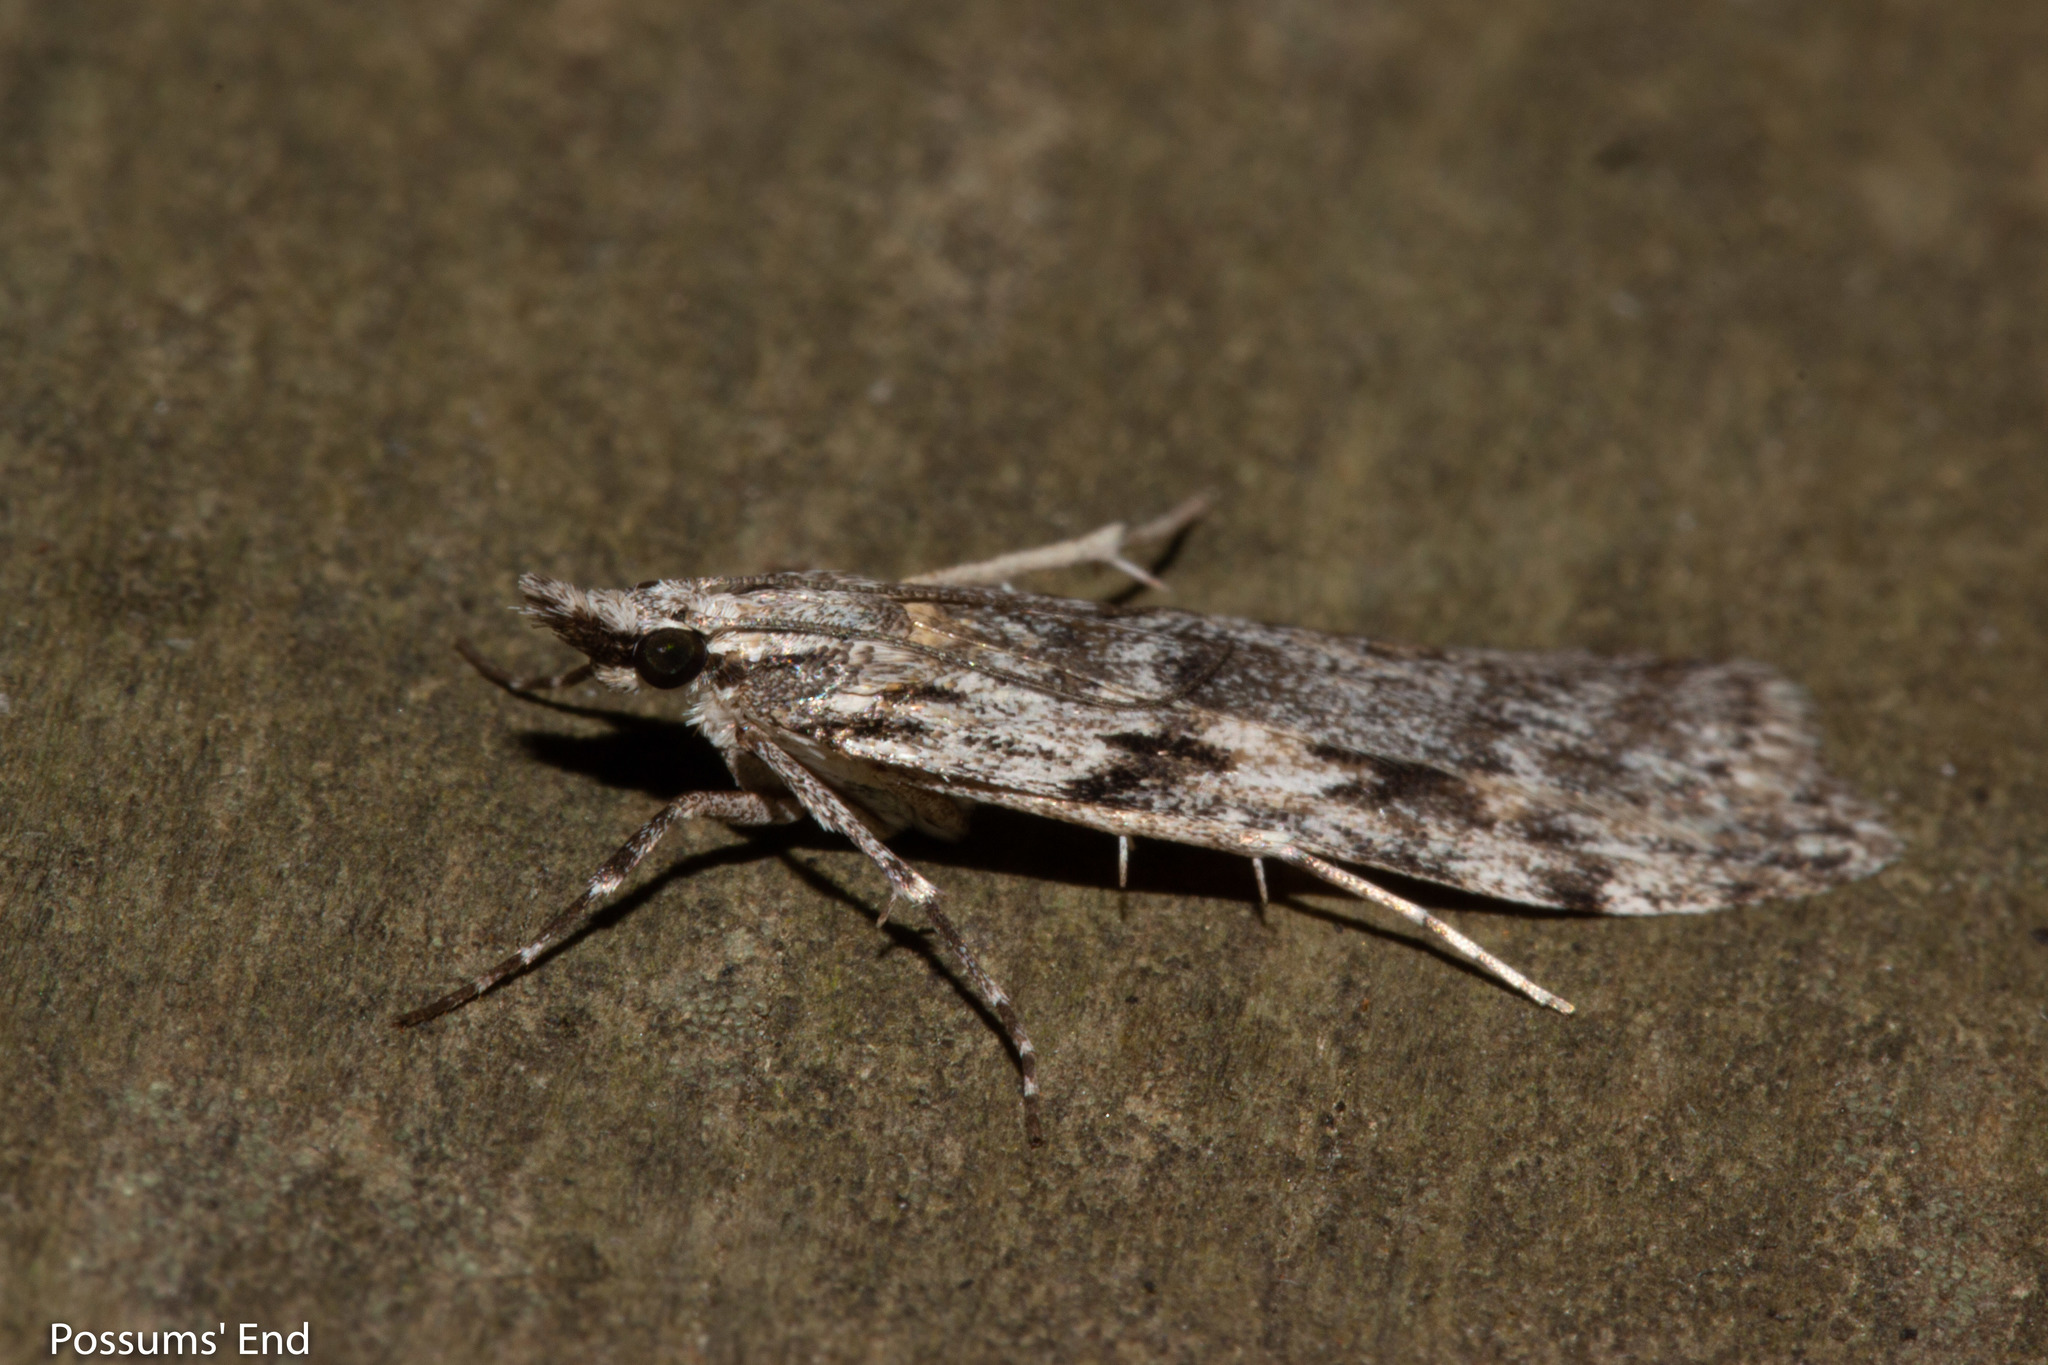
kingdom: Animalia
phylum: Arthropoda
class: Insecta
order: Lepidoptera
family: Crambidae
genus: Scoparia
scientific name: Scoparia halopis
